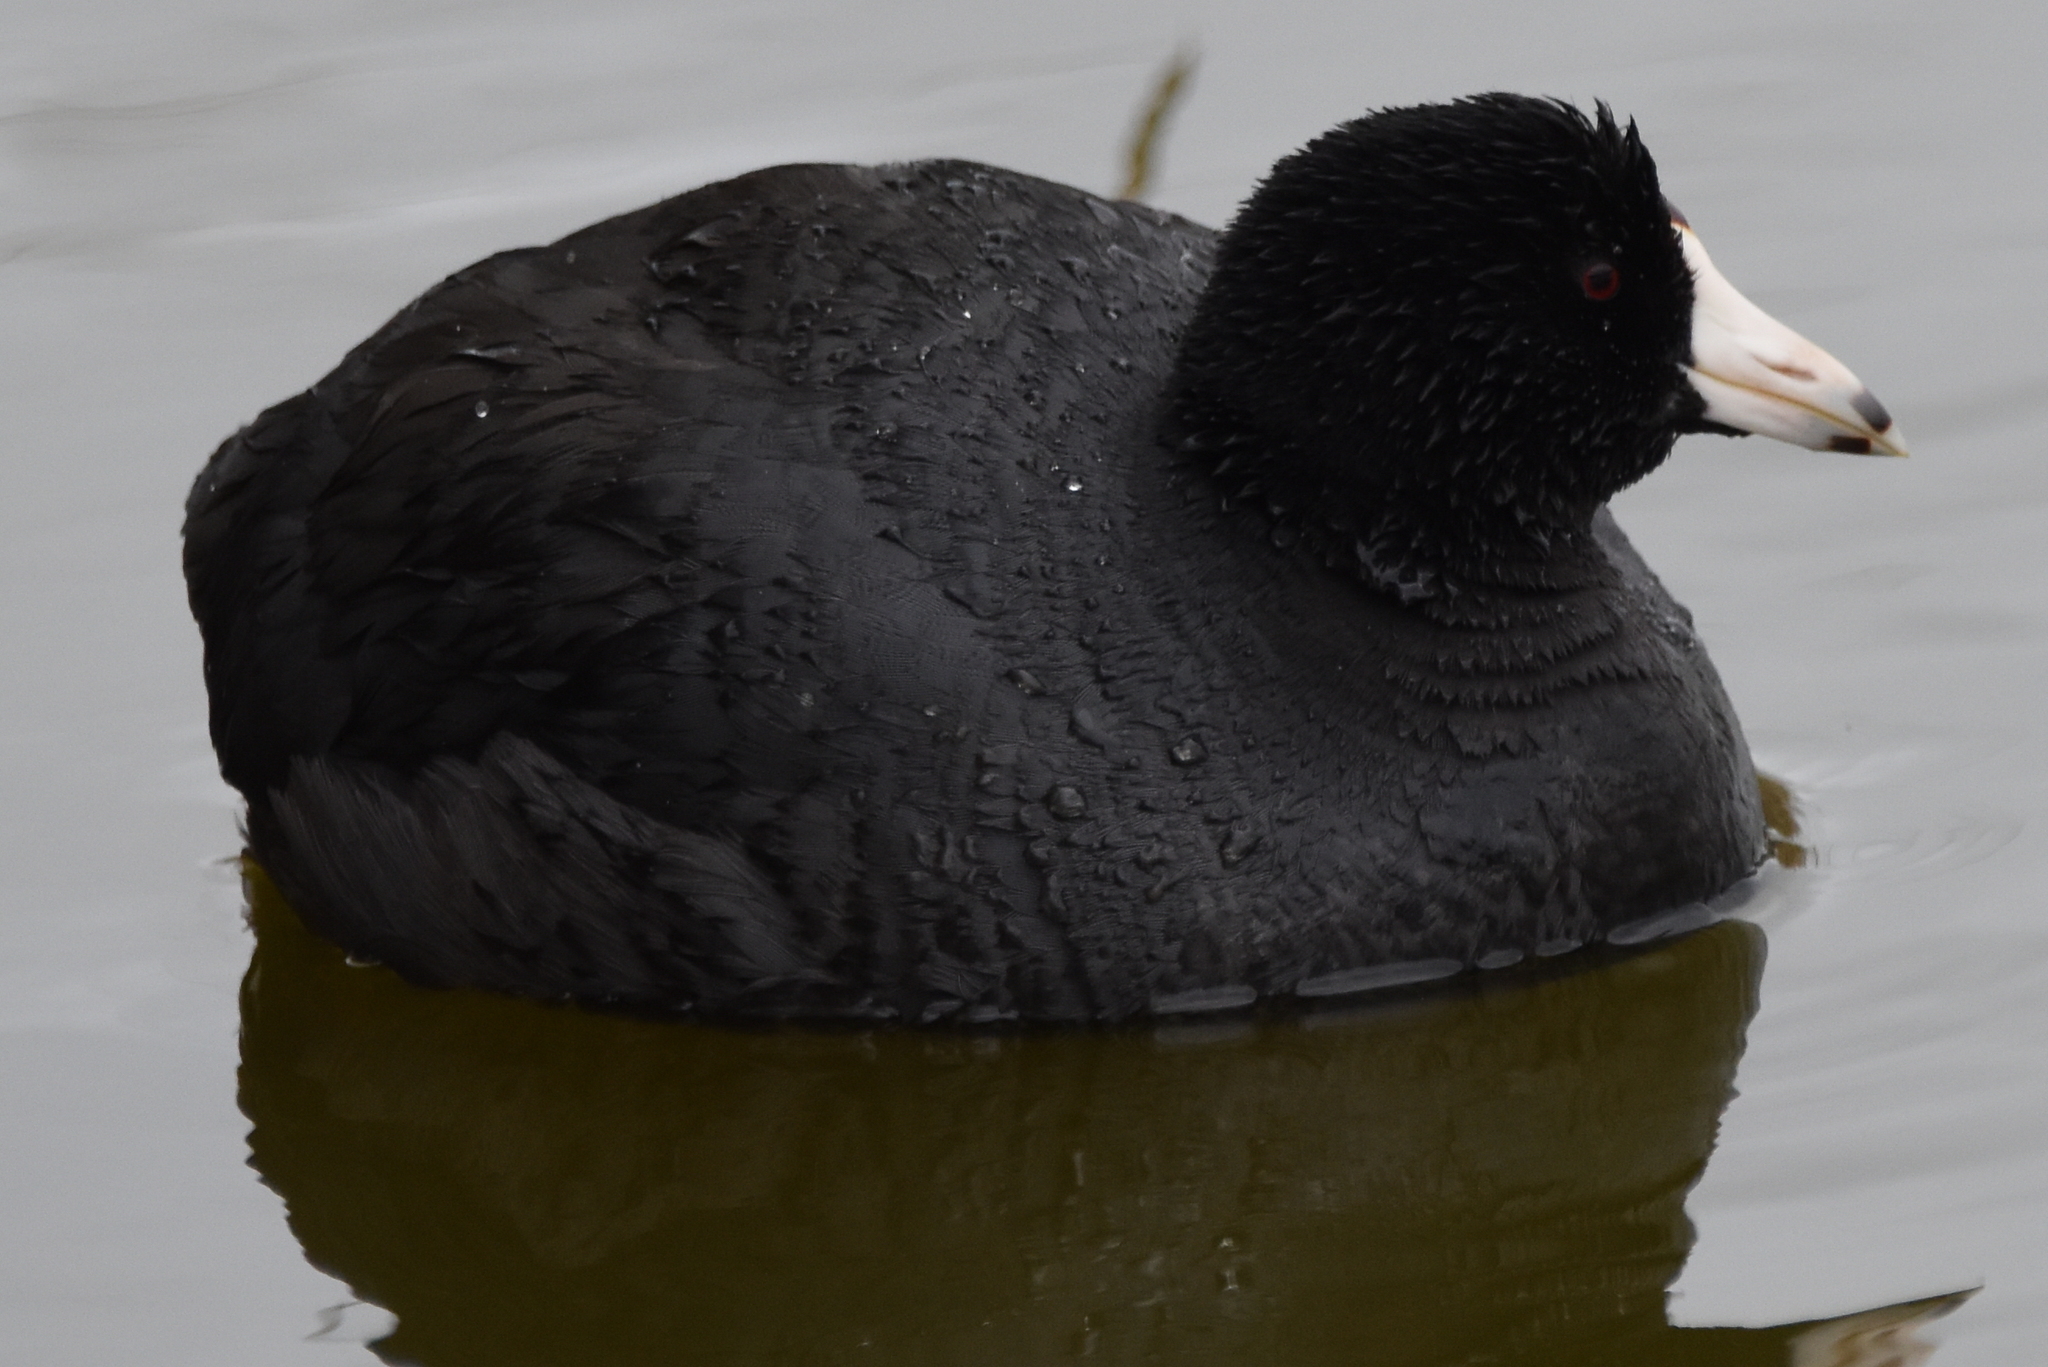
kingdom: Animalia
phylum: Chordata
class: Aves
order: Gruiformes
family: Rallidae
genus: Fulica
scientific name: Fulica americana
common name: American coot
